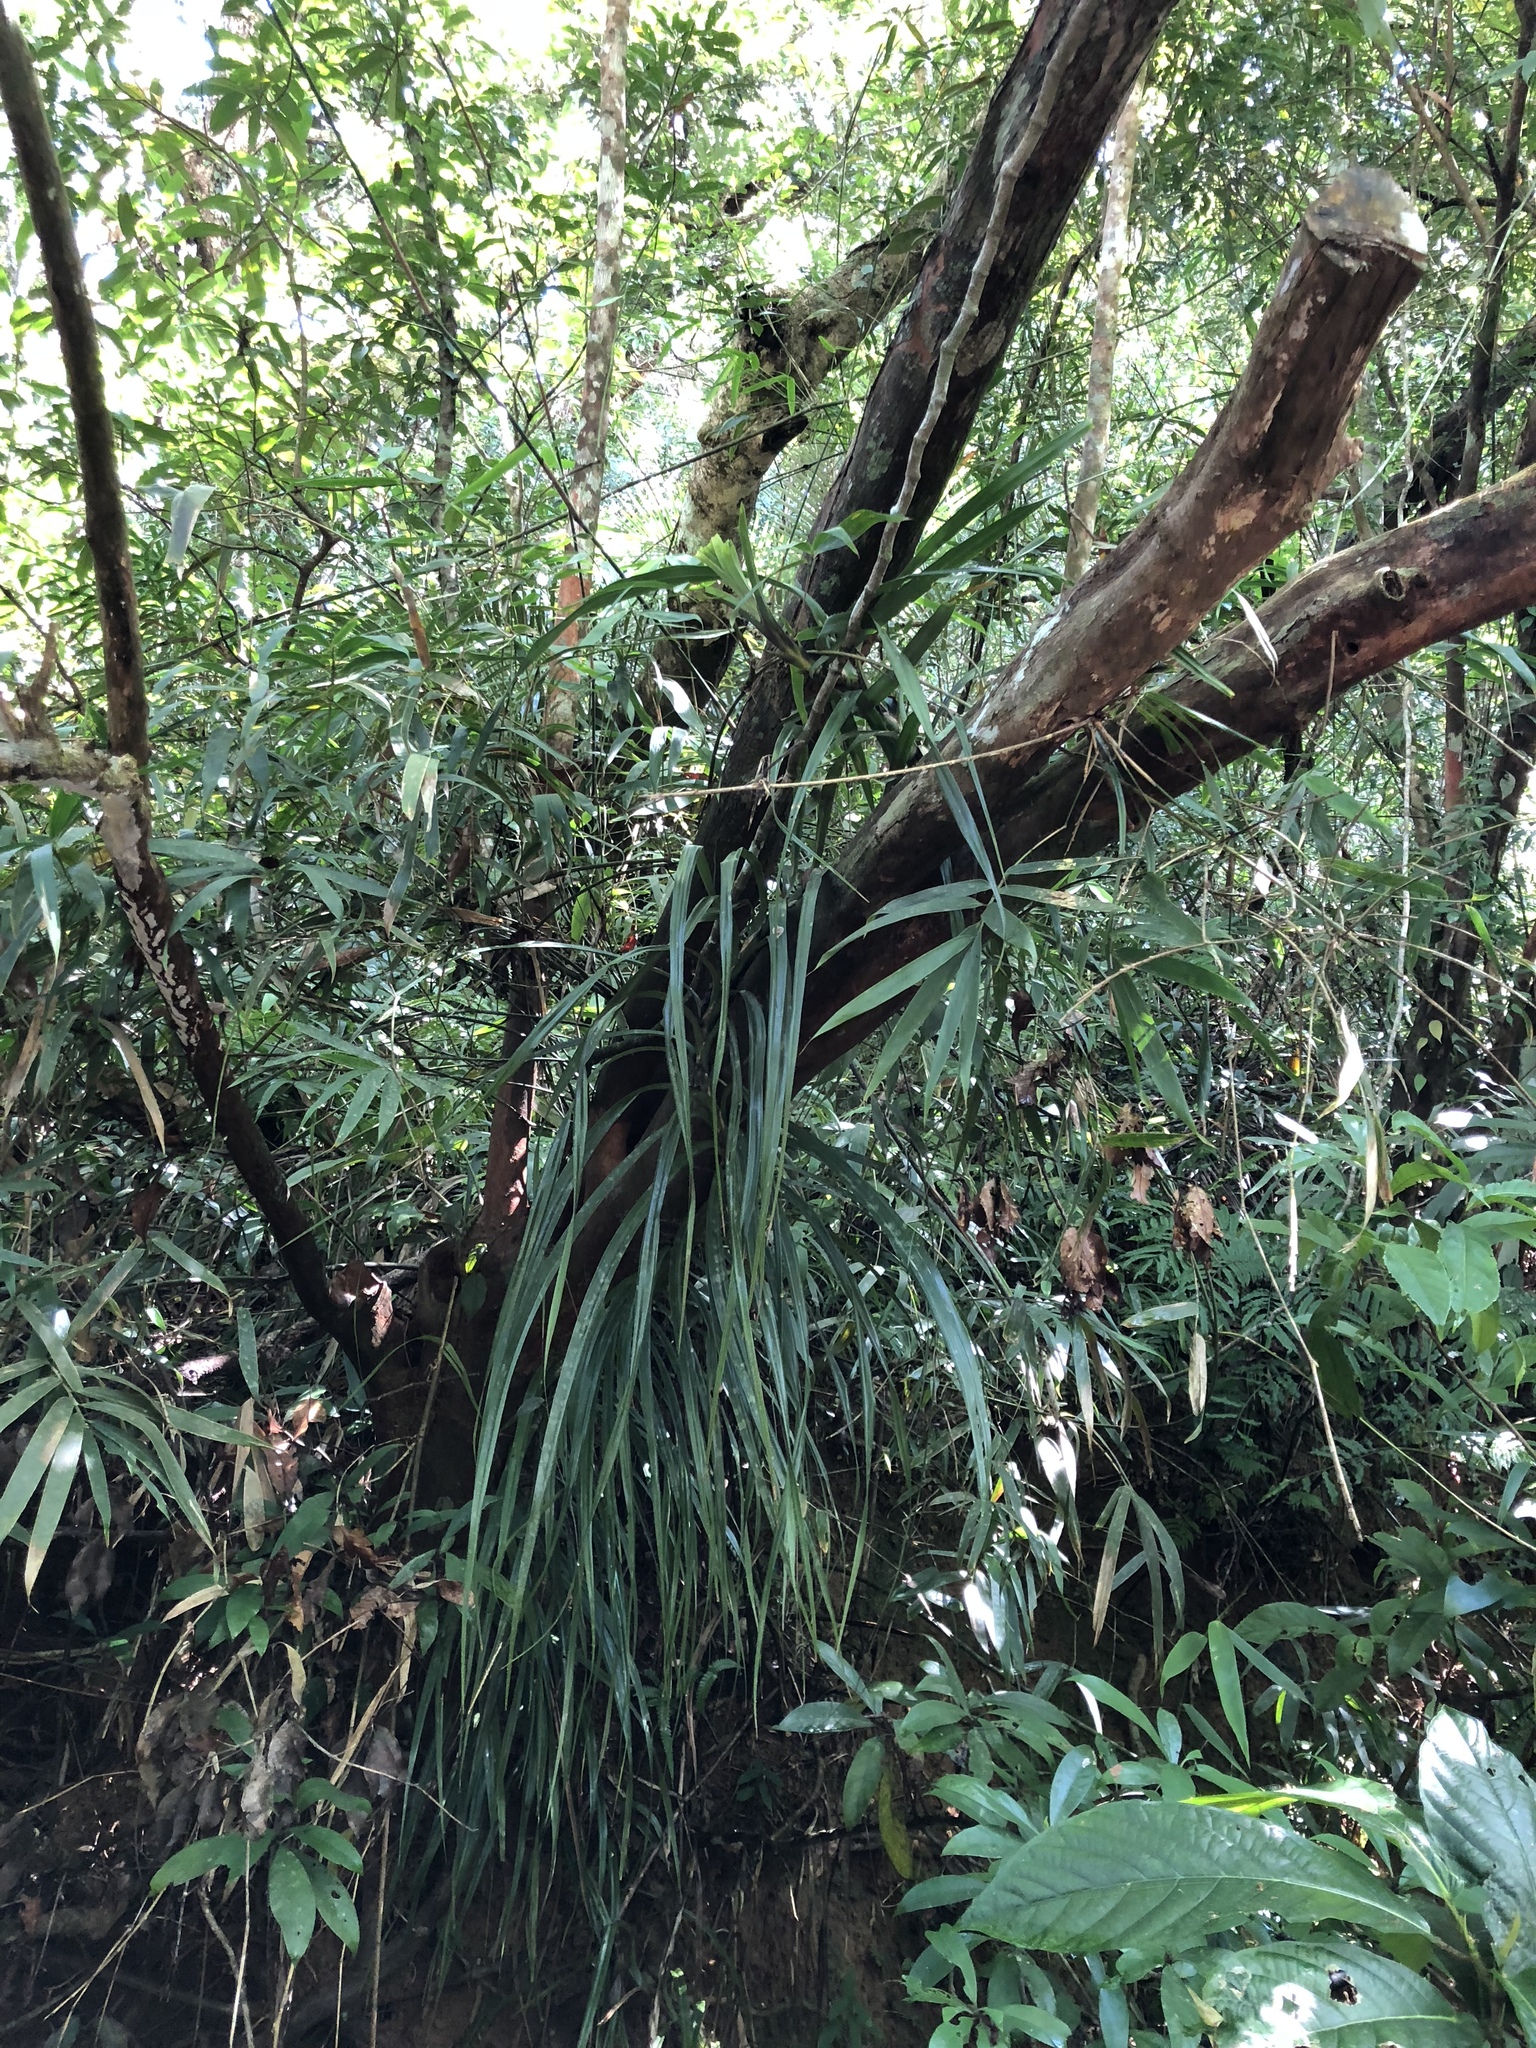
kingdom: Plantae
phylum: Tracheophyta
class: Liliopsida
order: Pandanales
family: Pandanaceae
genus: Freycinetia
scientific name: Freycinetia formosana
